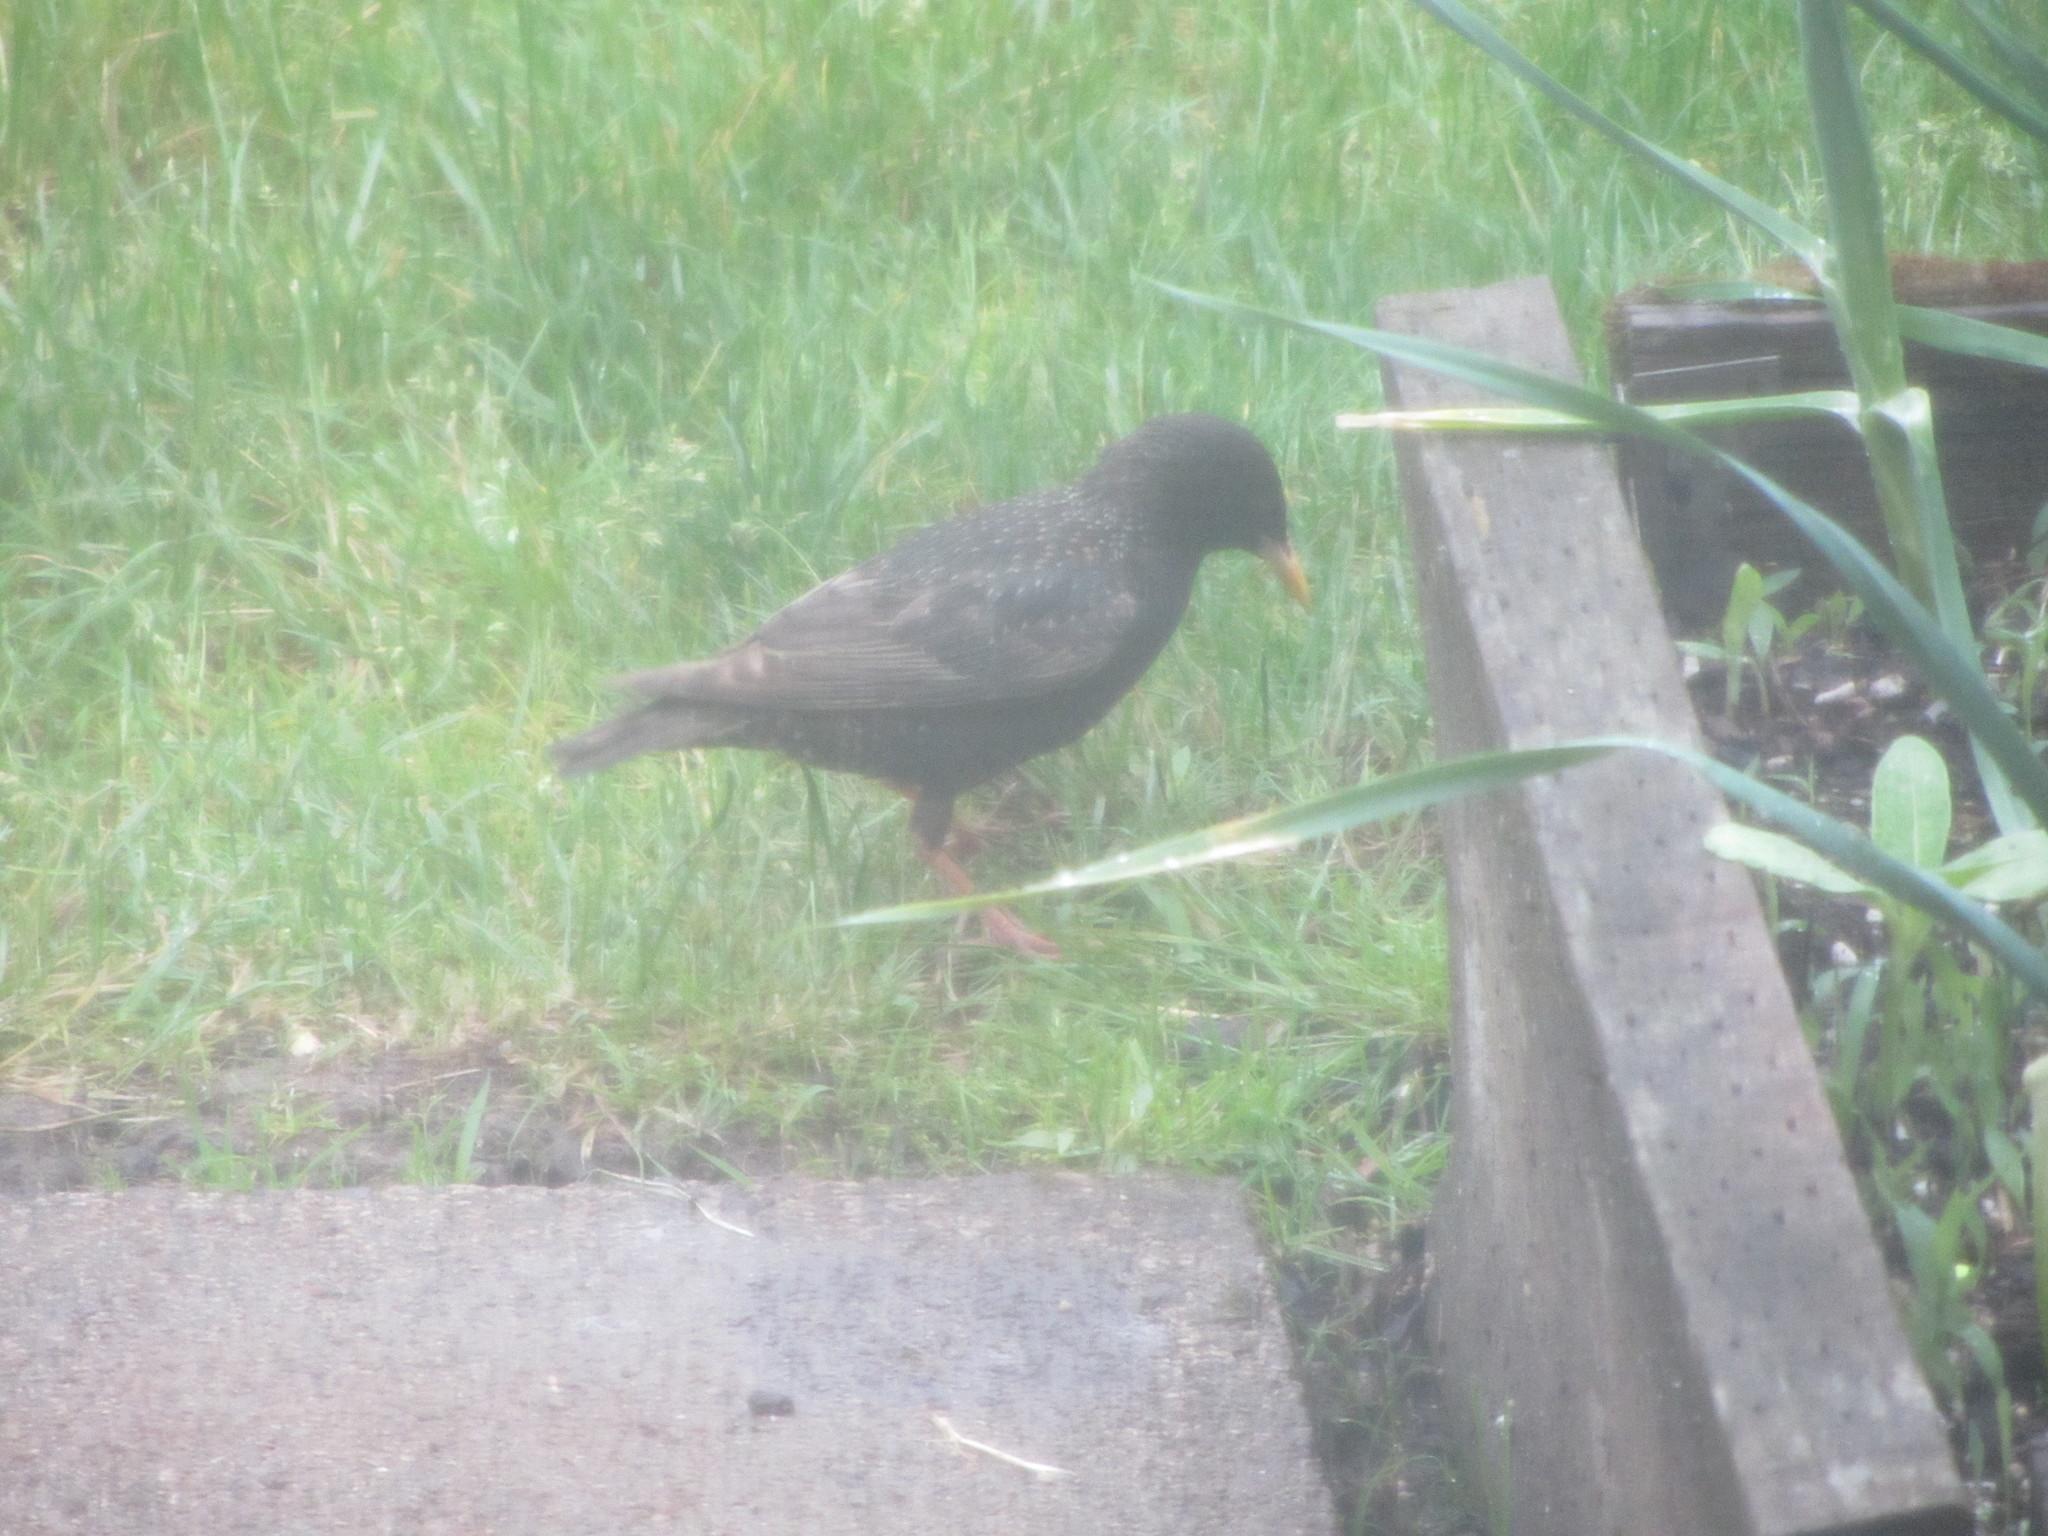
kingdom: Animalia
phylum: Chordata
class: Aves
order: Passeriformes
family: Sturnidae
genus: Sturnus
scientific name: Sturnus vulgaris
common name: Common starling
